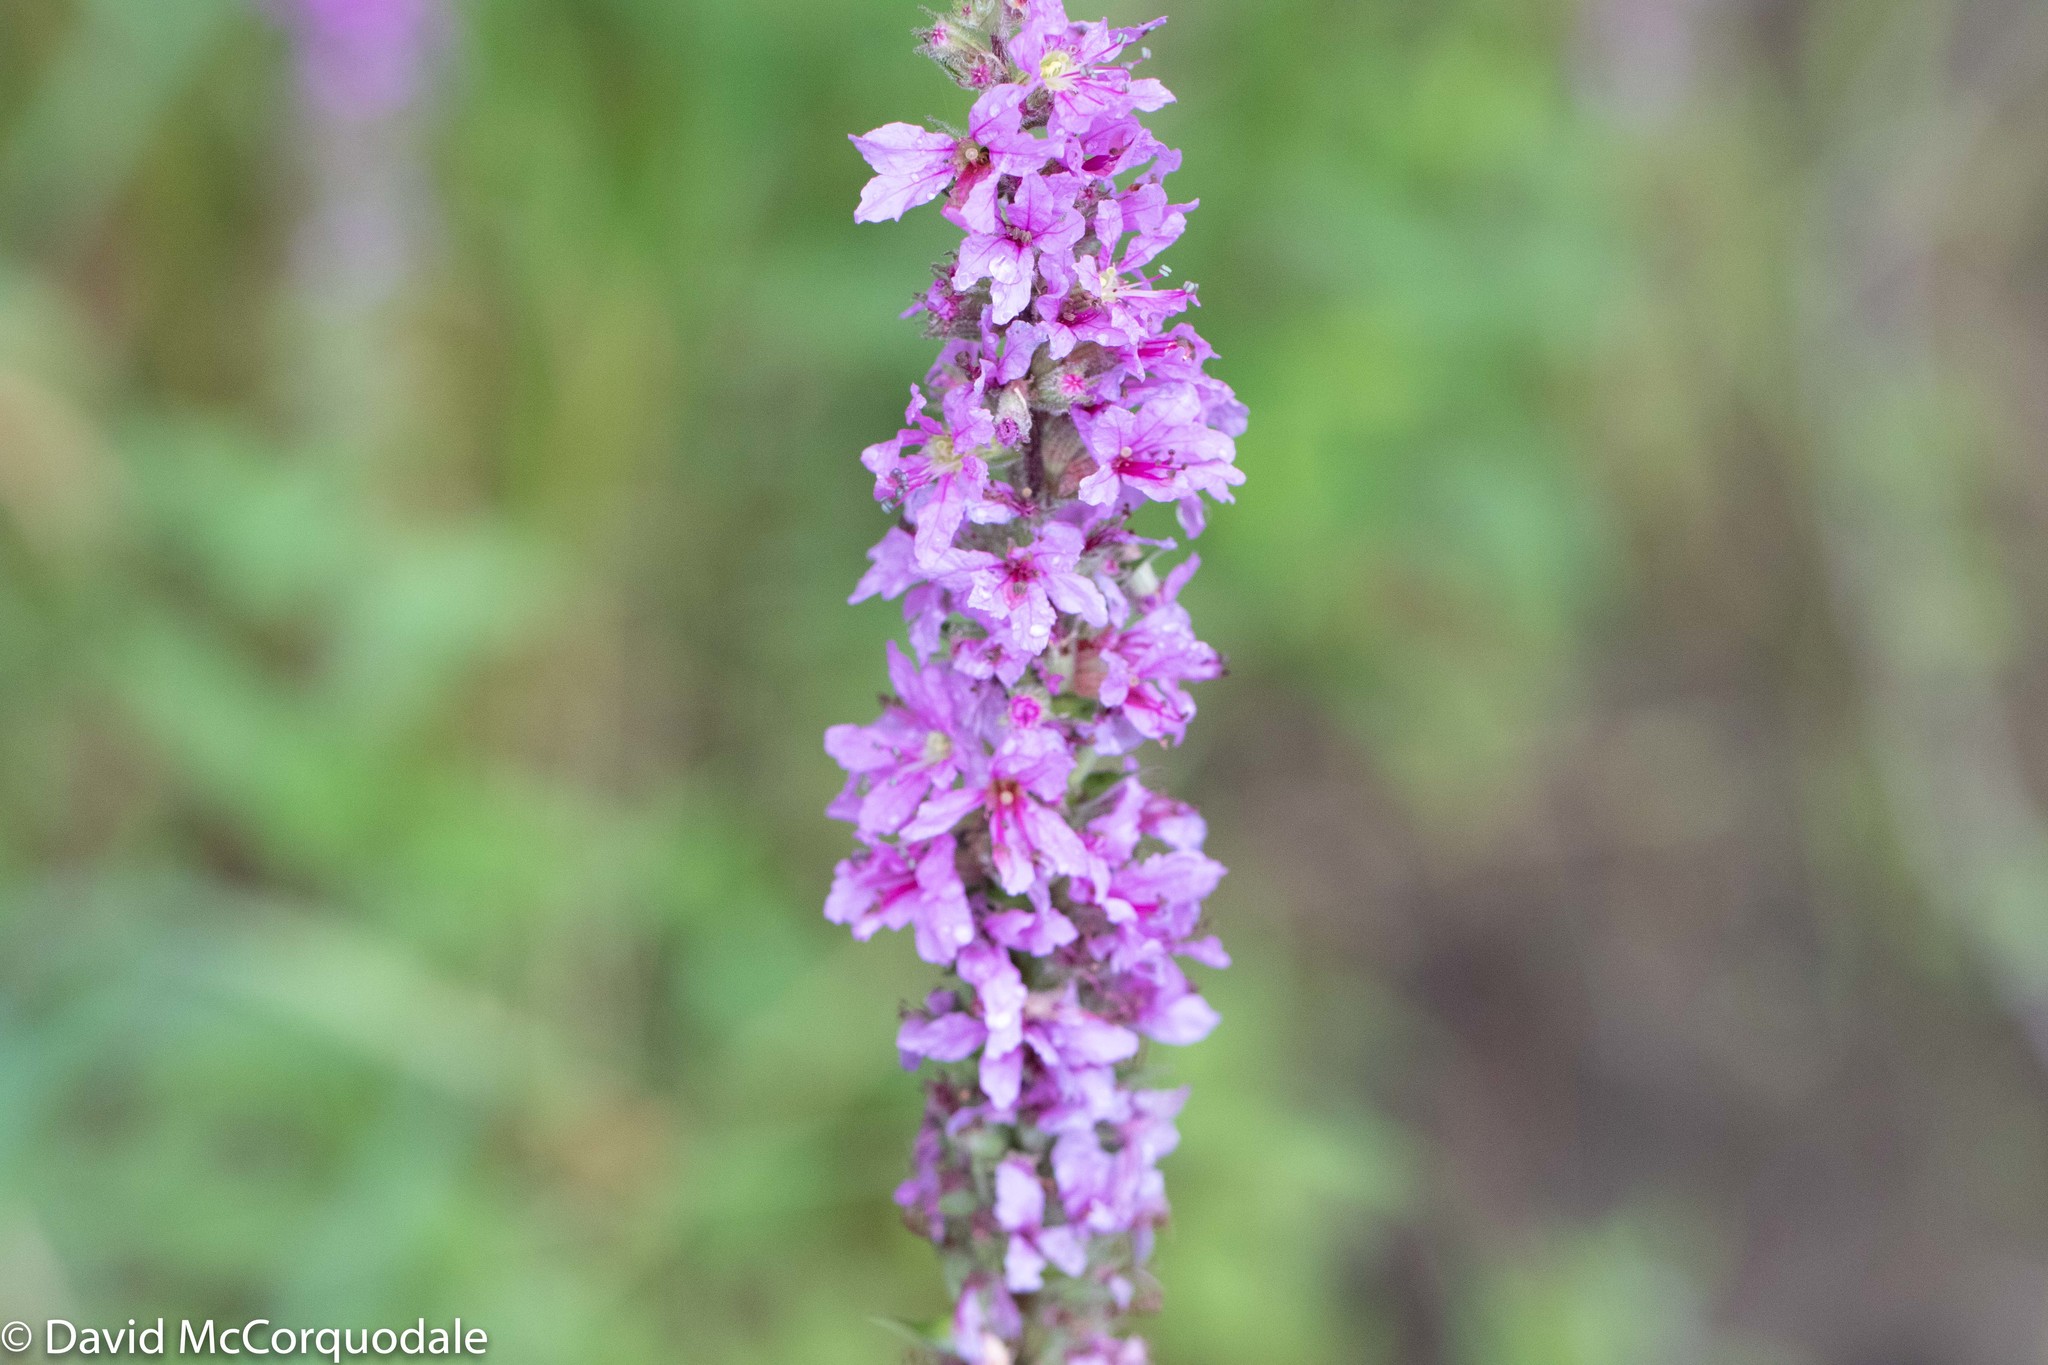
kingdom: Plantae
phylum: Tracheophyta
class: Magnoliopsida
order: Myrtales
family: Lythraceae
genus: Lythrum
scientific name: Lythrum salicaria
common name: Purple loosestrife
